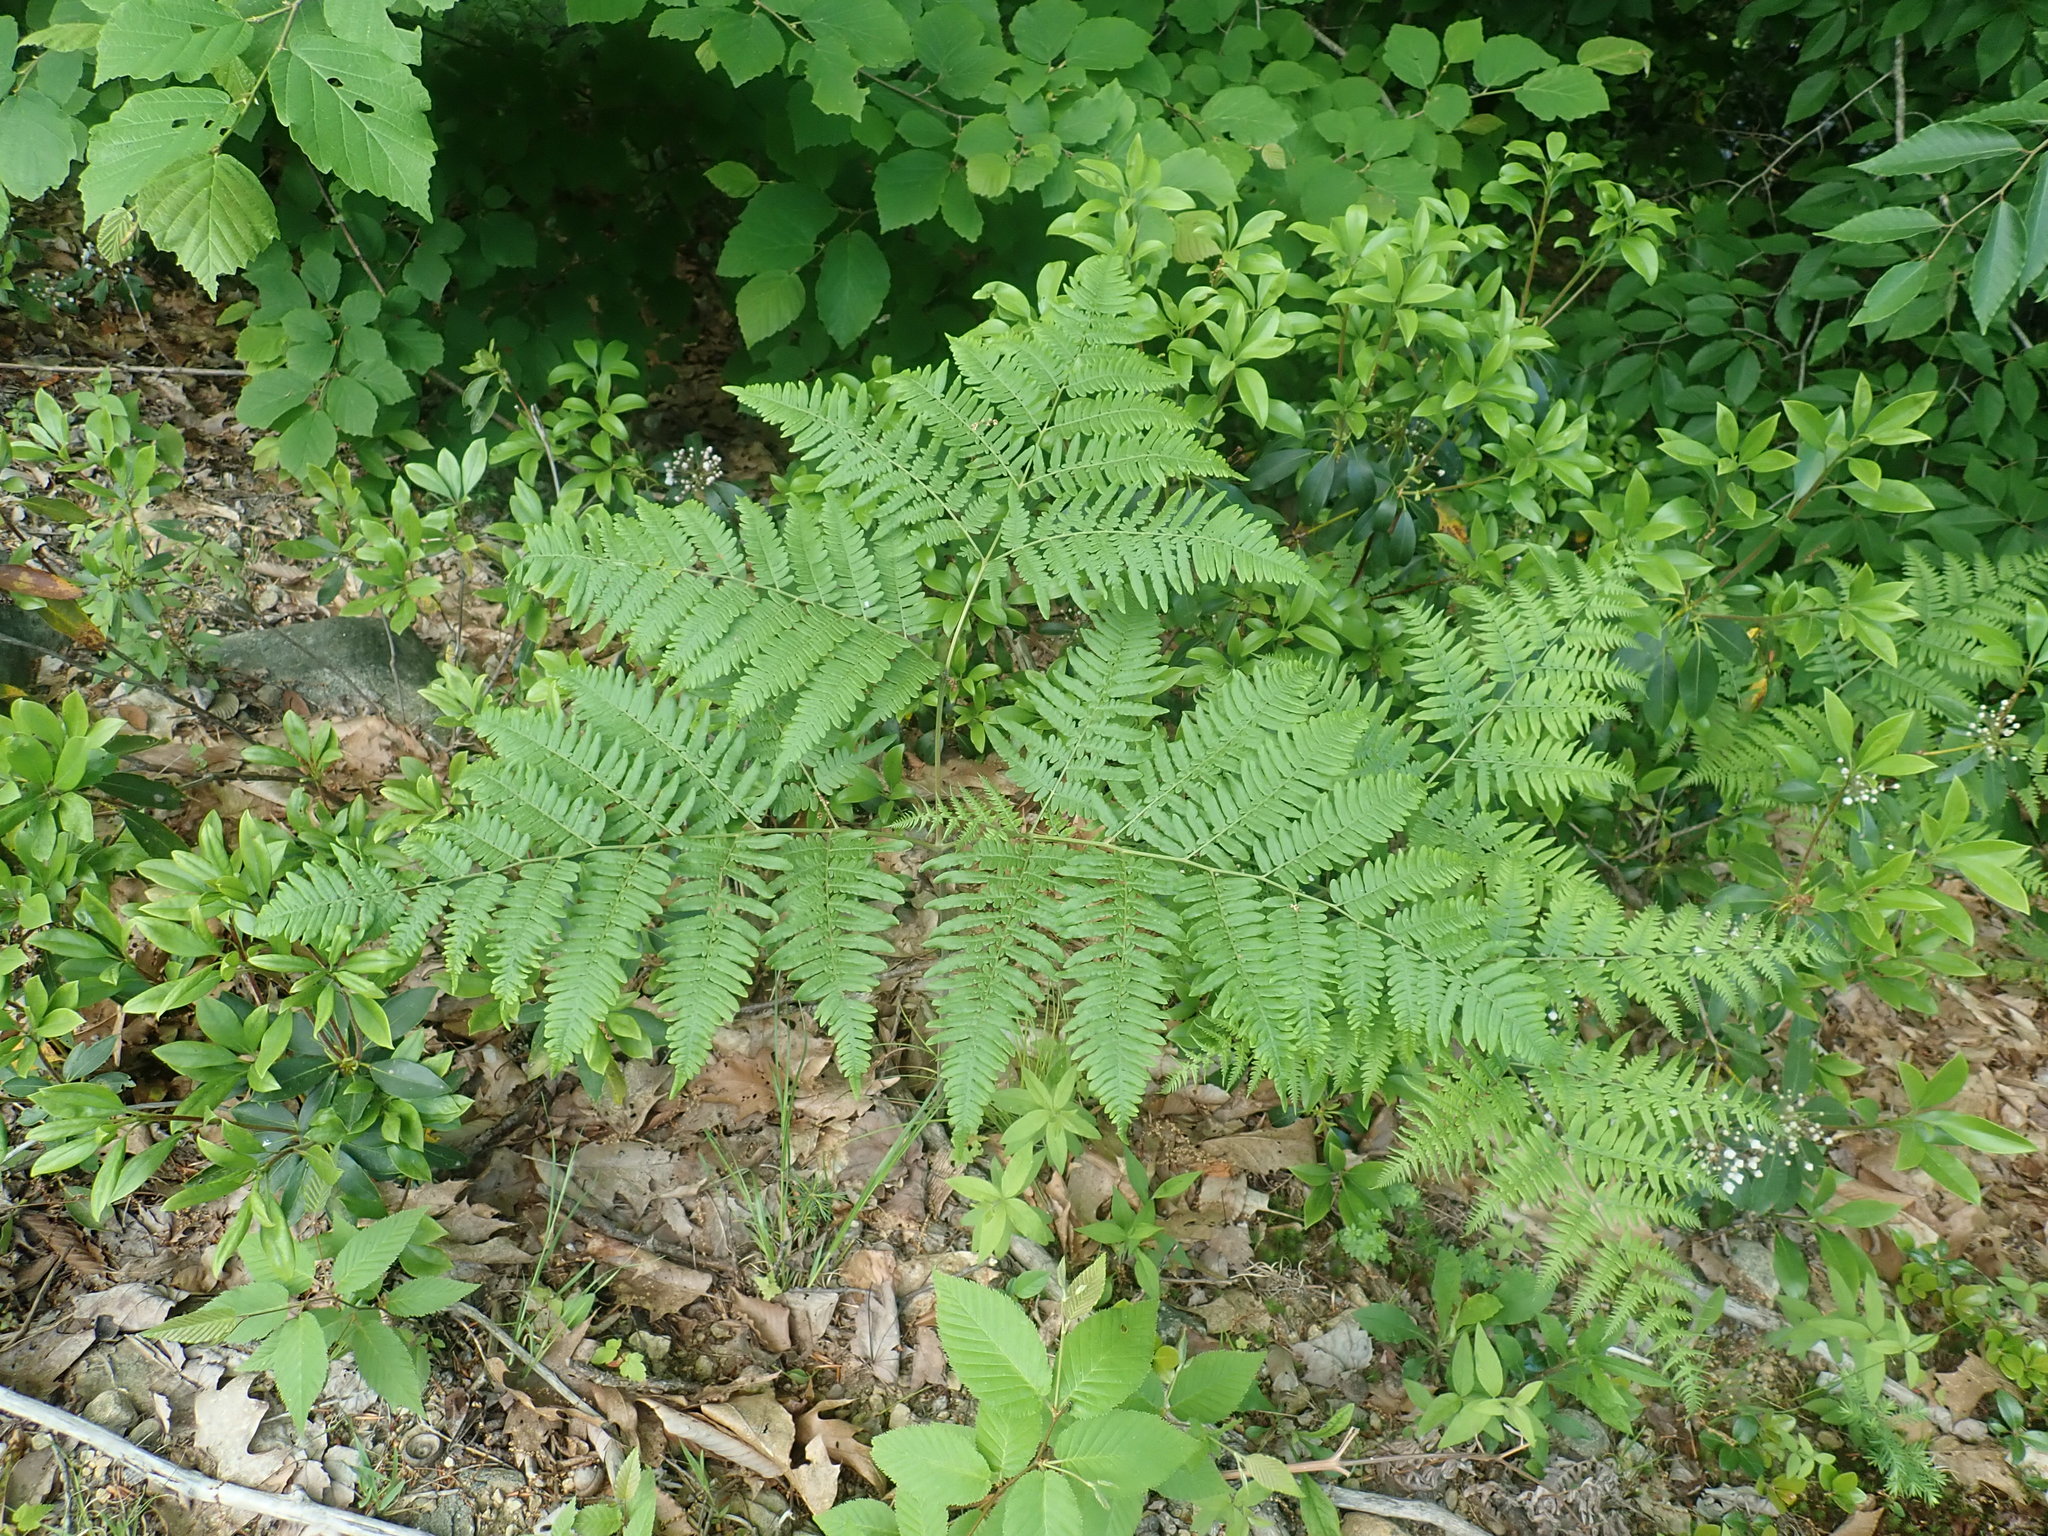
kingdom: Plantae
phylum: Tracheophyta
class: Polypodiopsida
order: Polypodiales
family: Dennstaedtiaceae
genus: Pteridium
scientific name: Pteridium aquilinum
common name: Bracken
